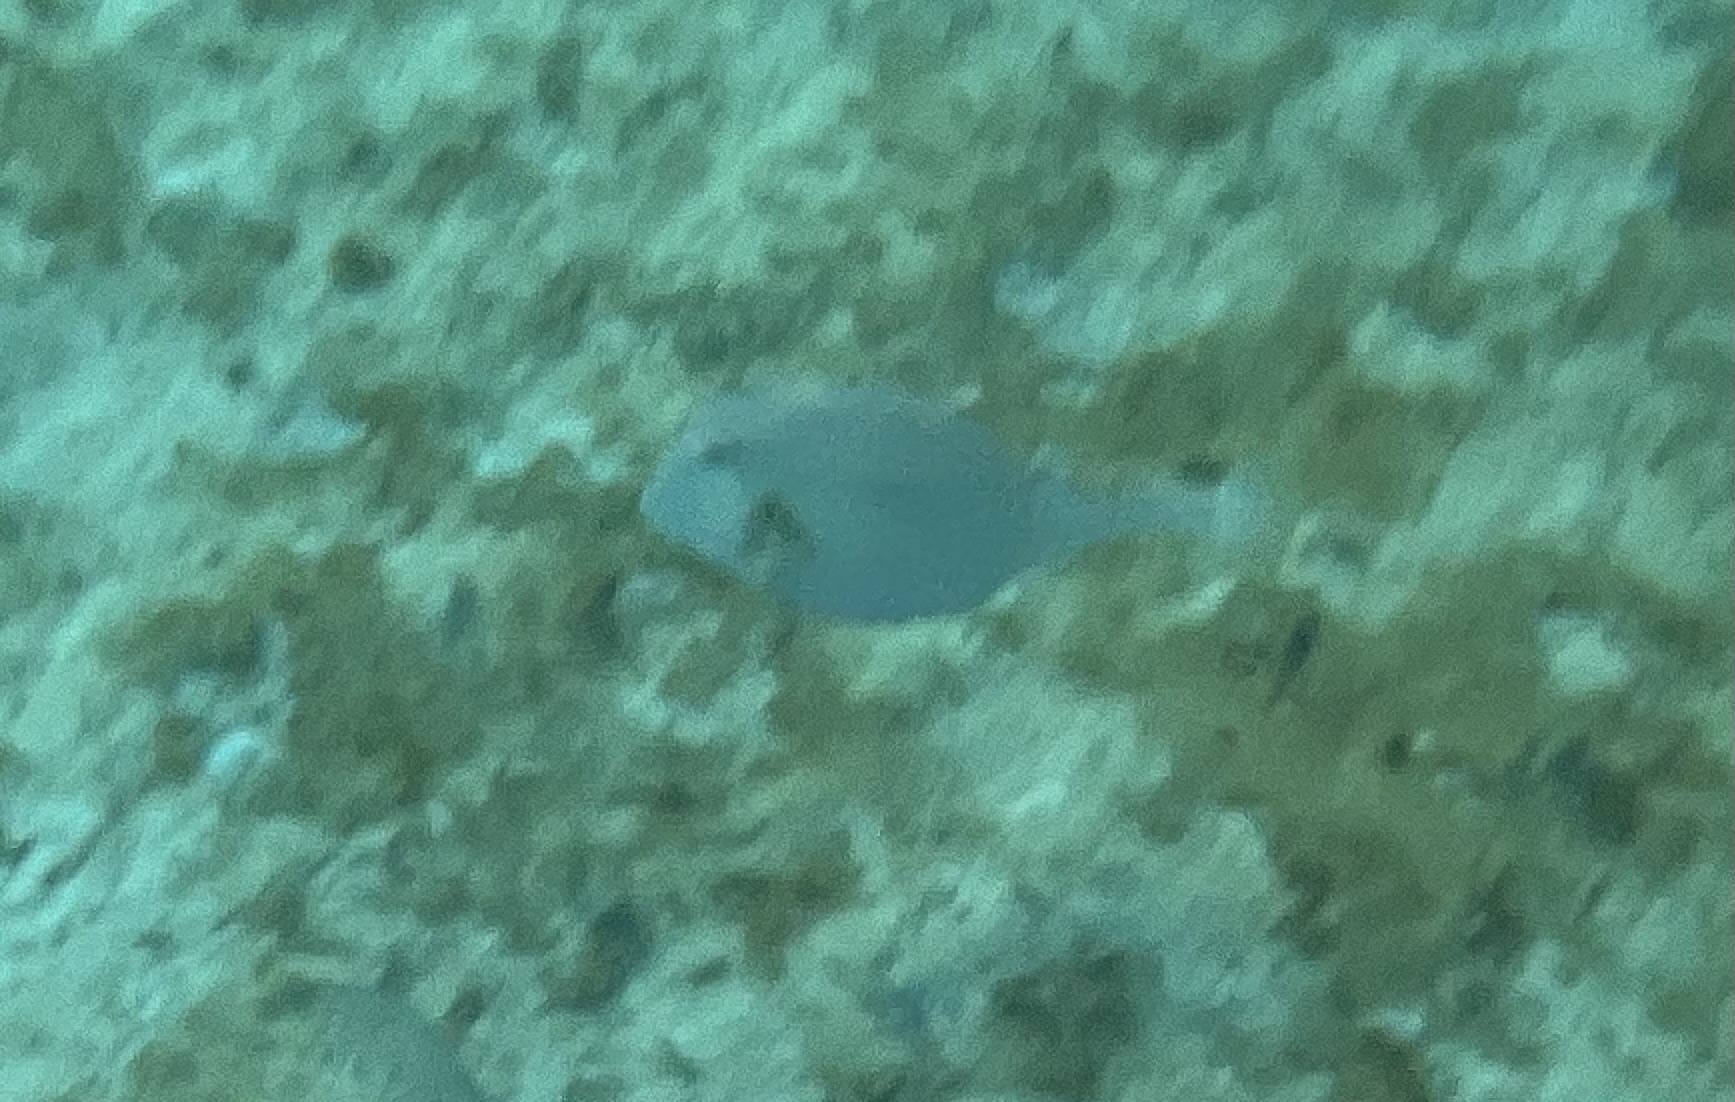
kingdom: Animalia
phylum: Chordata
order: Tetraodontiformes
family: Ostraciidae
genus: Lactophrys
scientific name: Lactophrys trigonus
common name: Buffalo trunkfish
